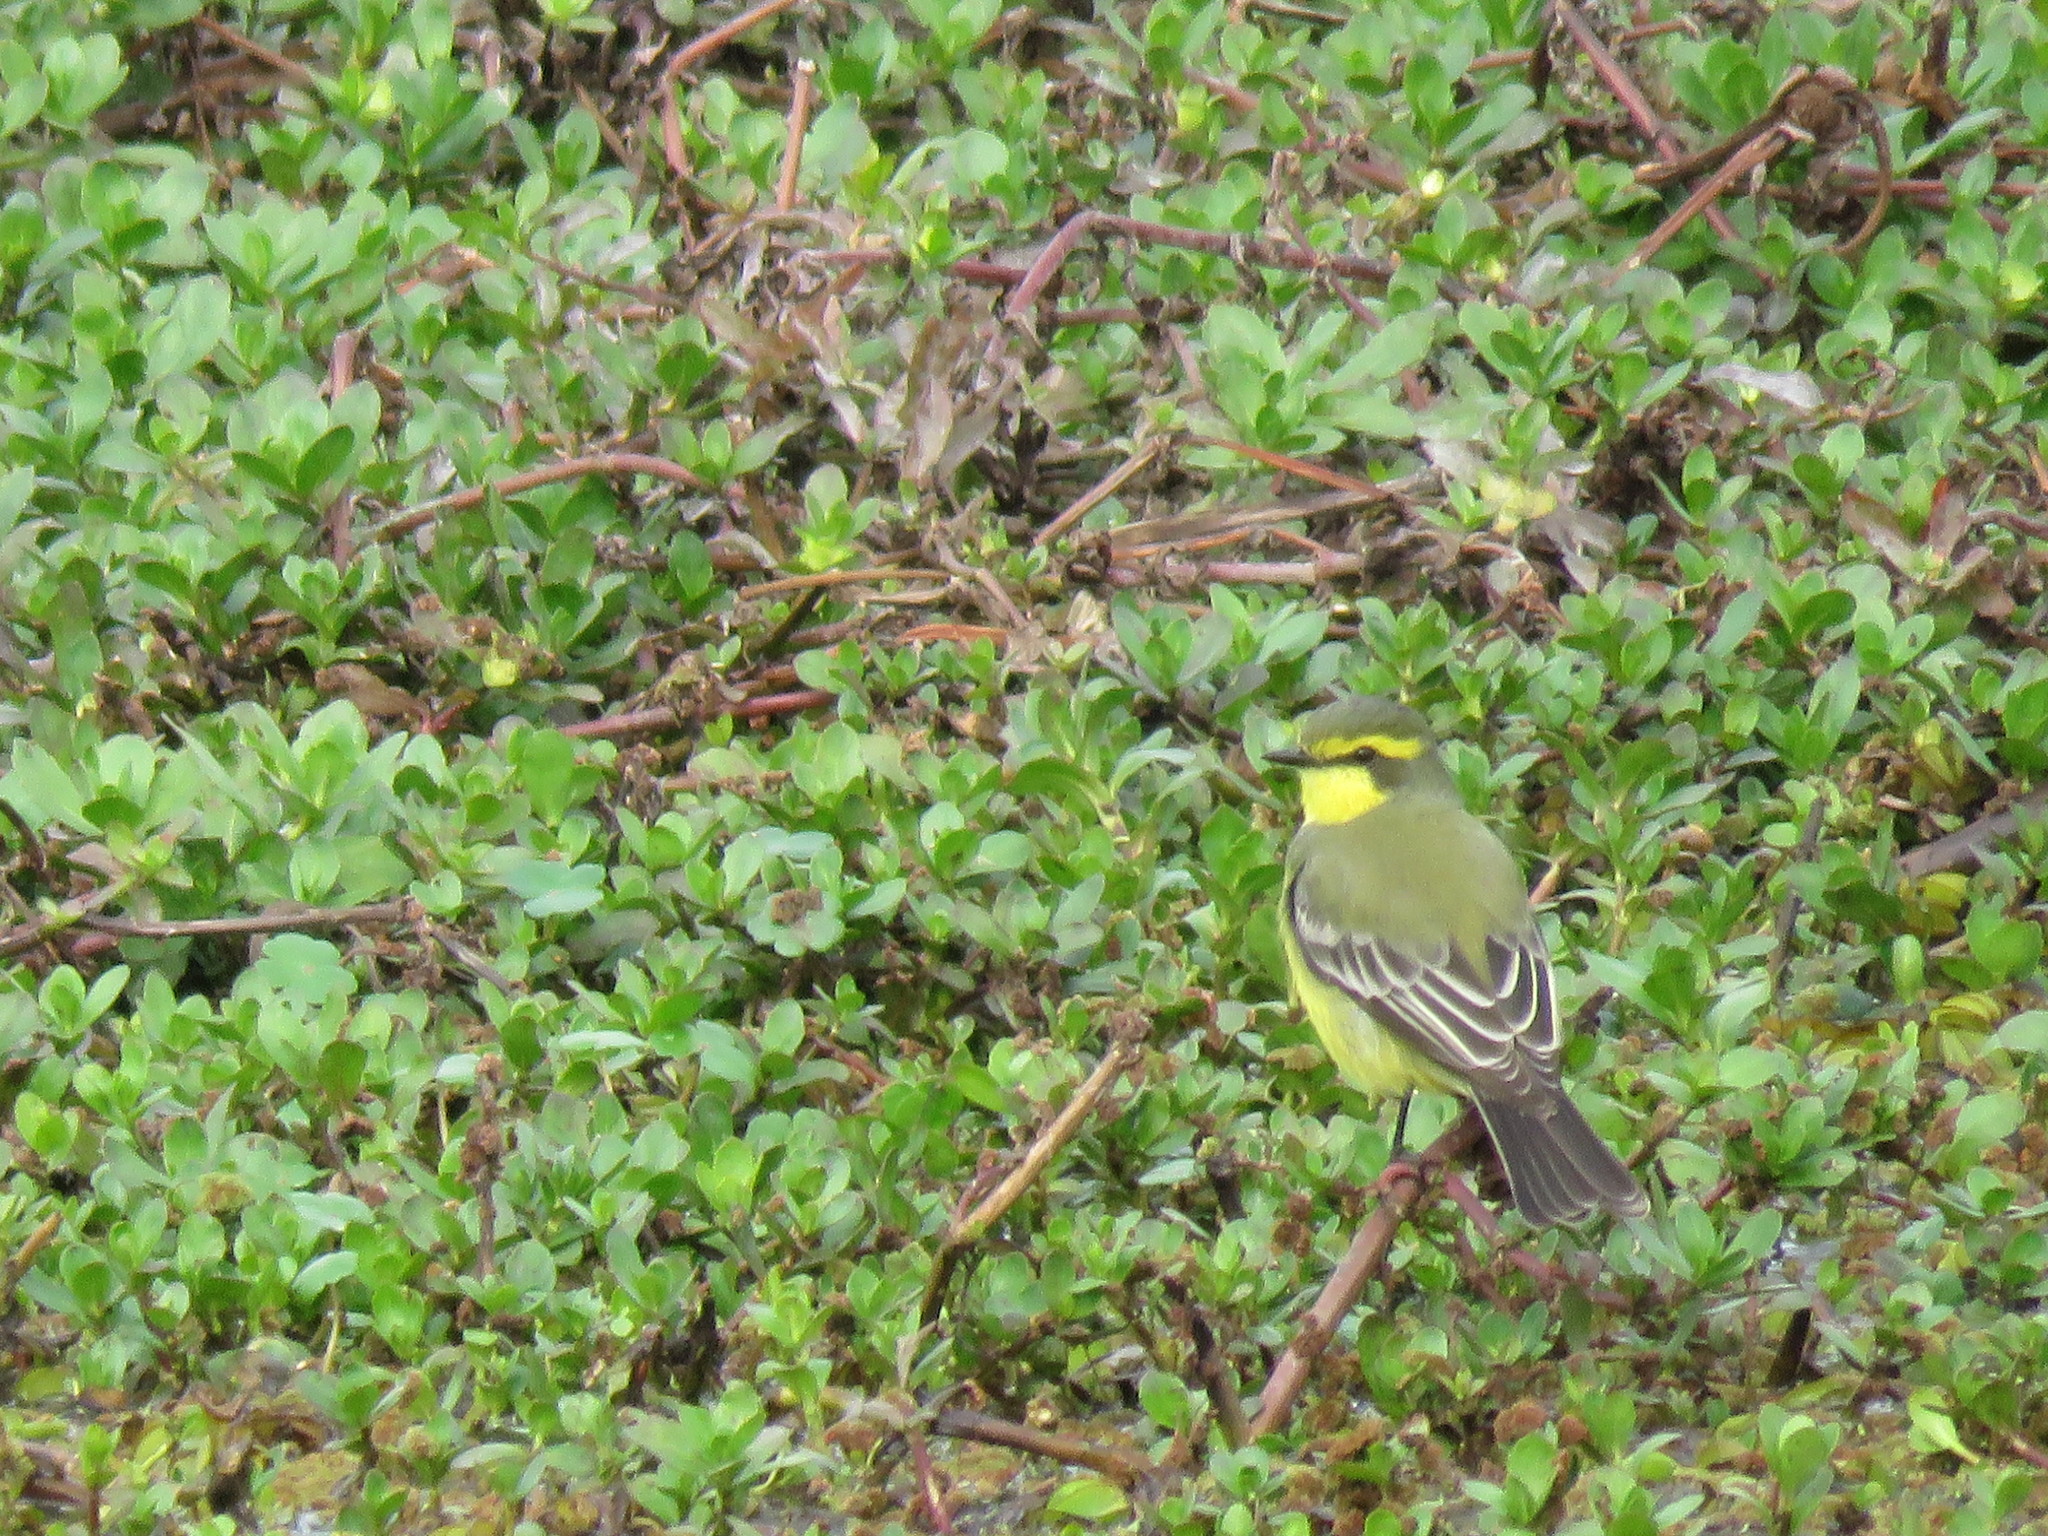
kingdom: Animalia
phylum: Chordata
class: Aves
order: Passeriformes
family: Tyrannidae
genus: Satrapa
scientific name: Satrapa icterophrys
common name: Yellow-browed tyrant
